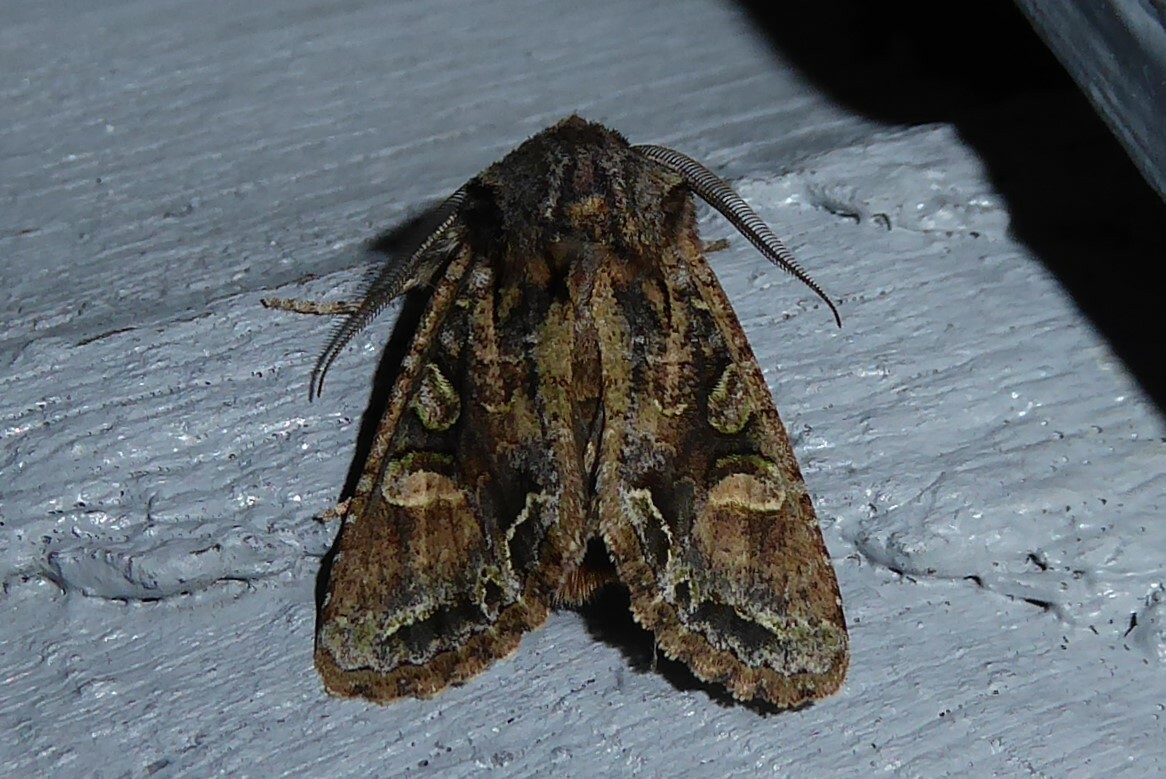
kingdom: Animalia
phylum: Arthropoda
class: Insecta
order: Lepidoptera
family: Noctuidae
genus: Ichneutica
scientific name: Ichneutica skelloni
